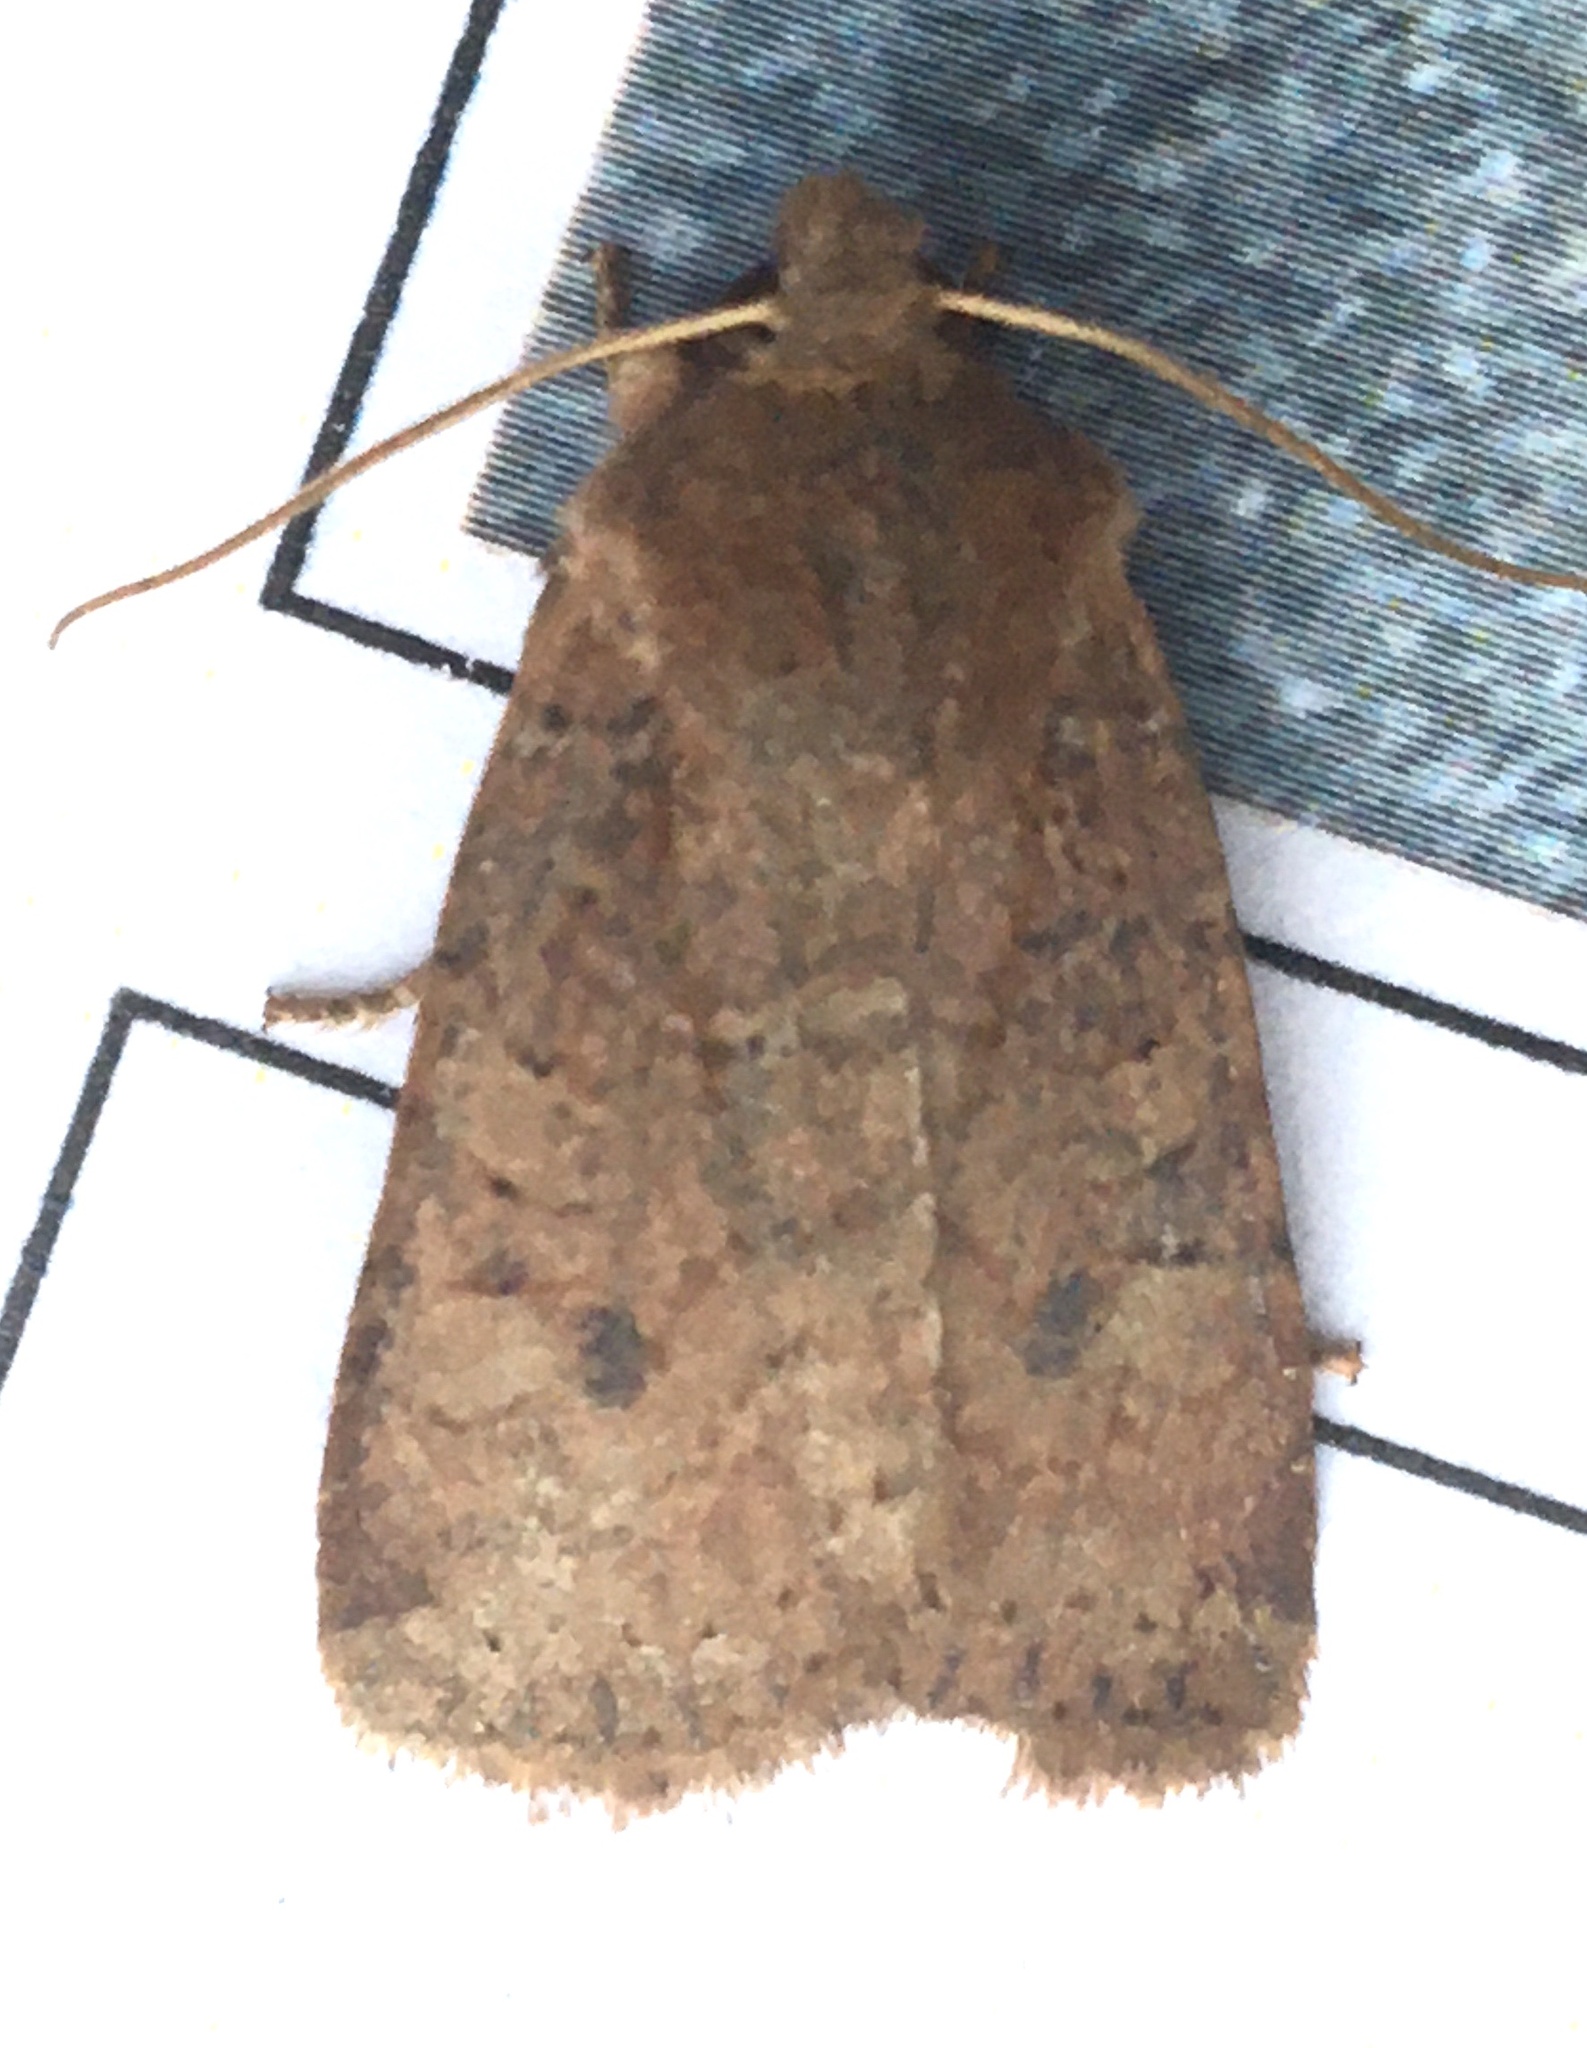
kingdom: Animalia
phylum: Arthropoda
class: Insecta
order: Lepidoptera
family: Noctuidae
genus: Conistra
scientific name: Conistra vaccinii
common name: Chestnut
